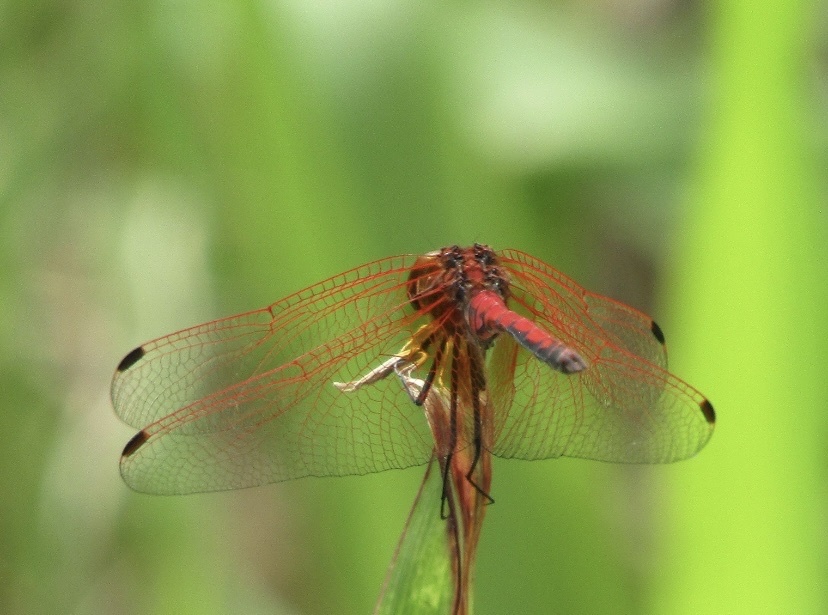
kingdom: Animalia
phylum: Arthropoda
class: Insecta
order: Odonata
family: Libellulidae
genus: Trithemis
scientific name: Trithemis arteriosa
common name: Red-veined dropwing
